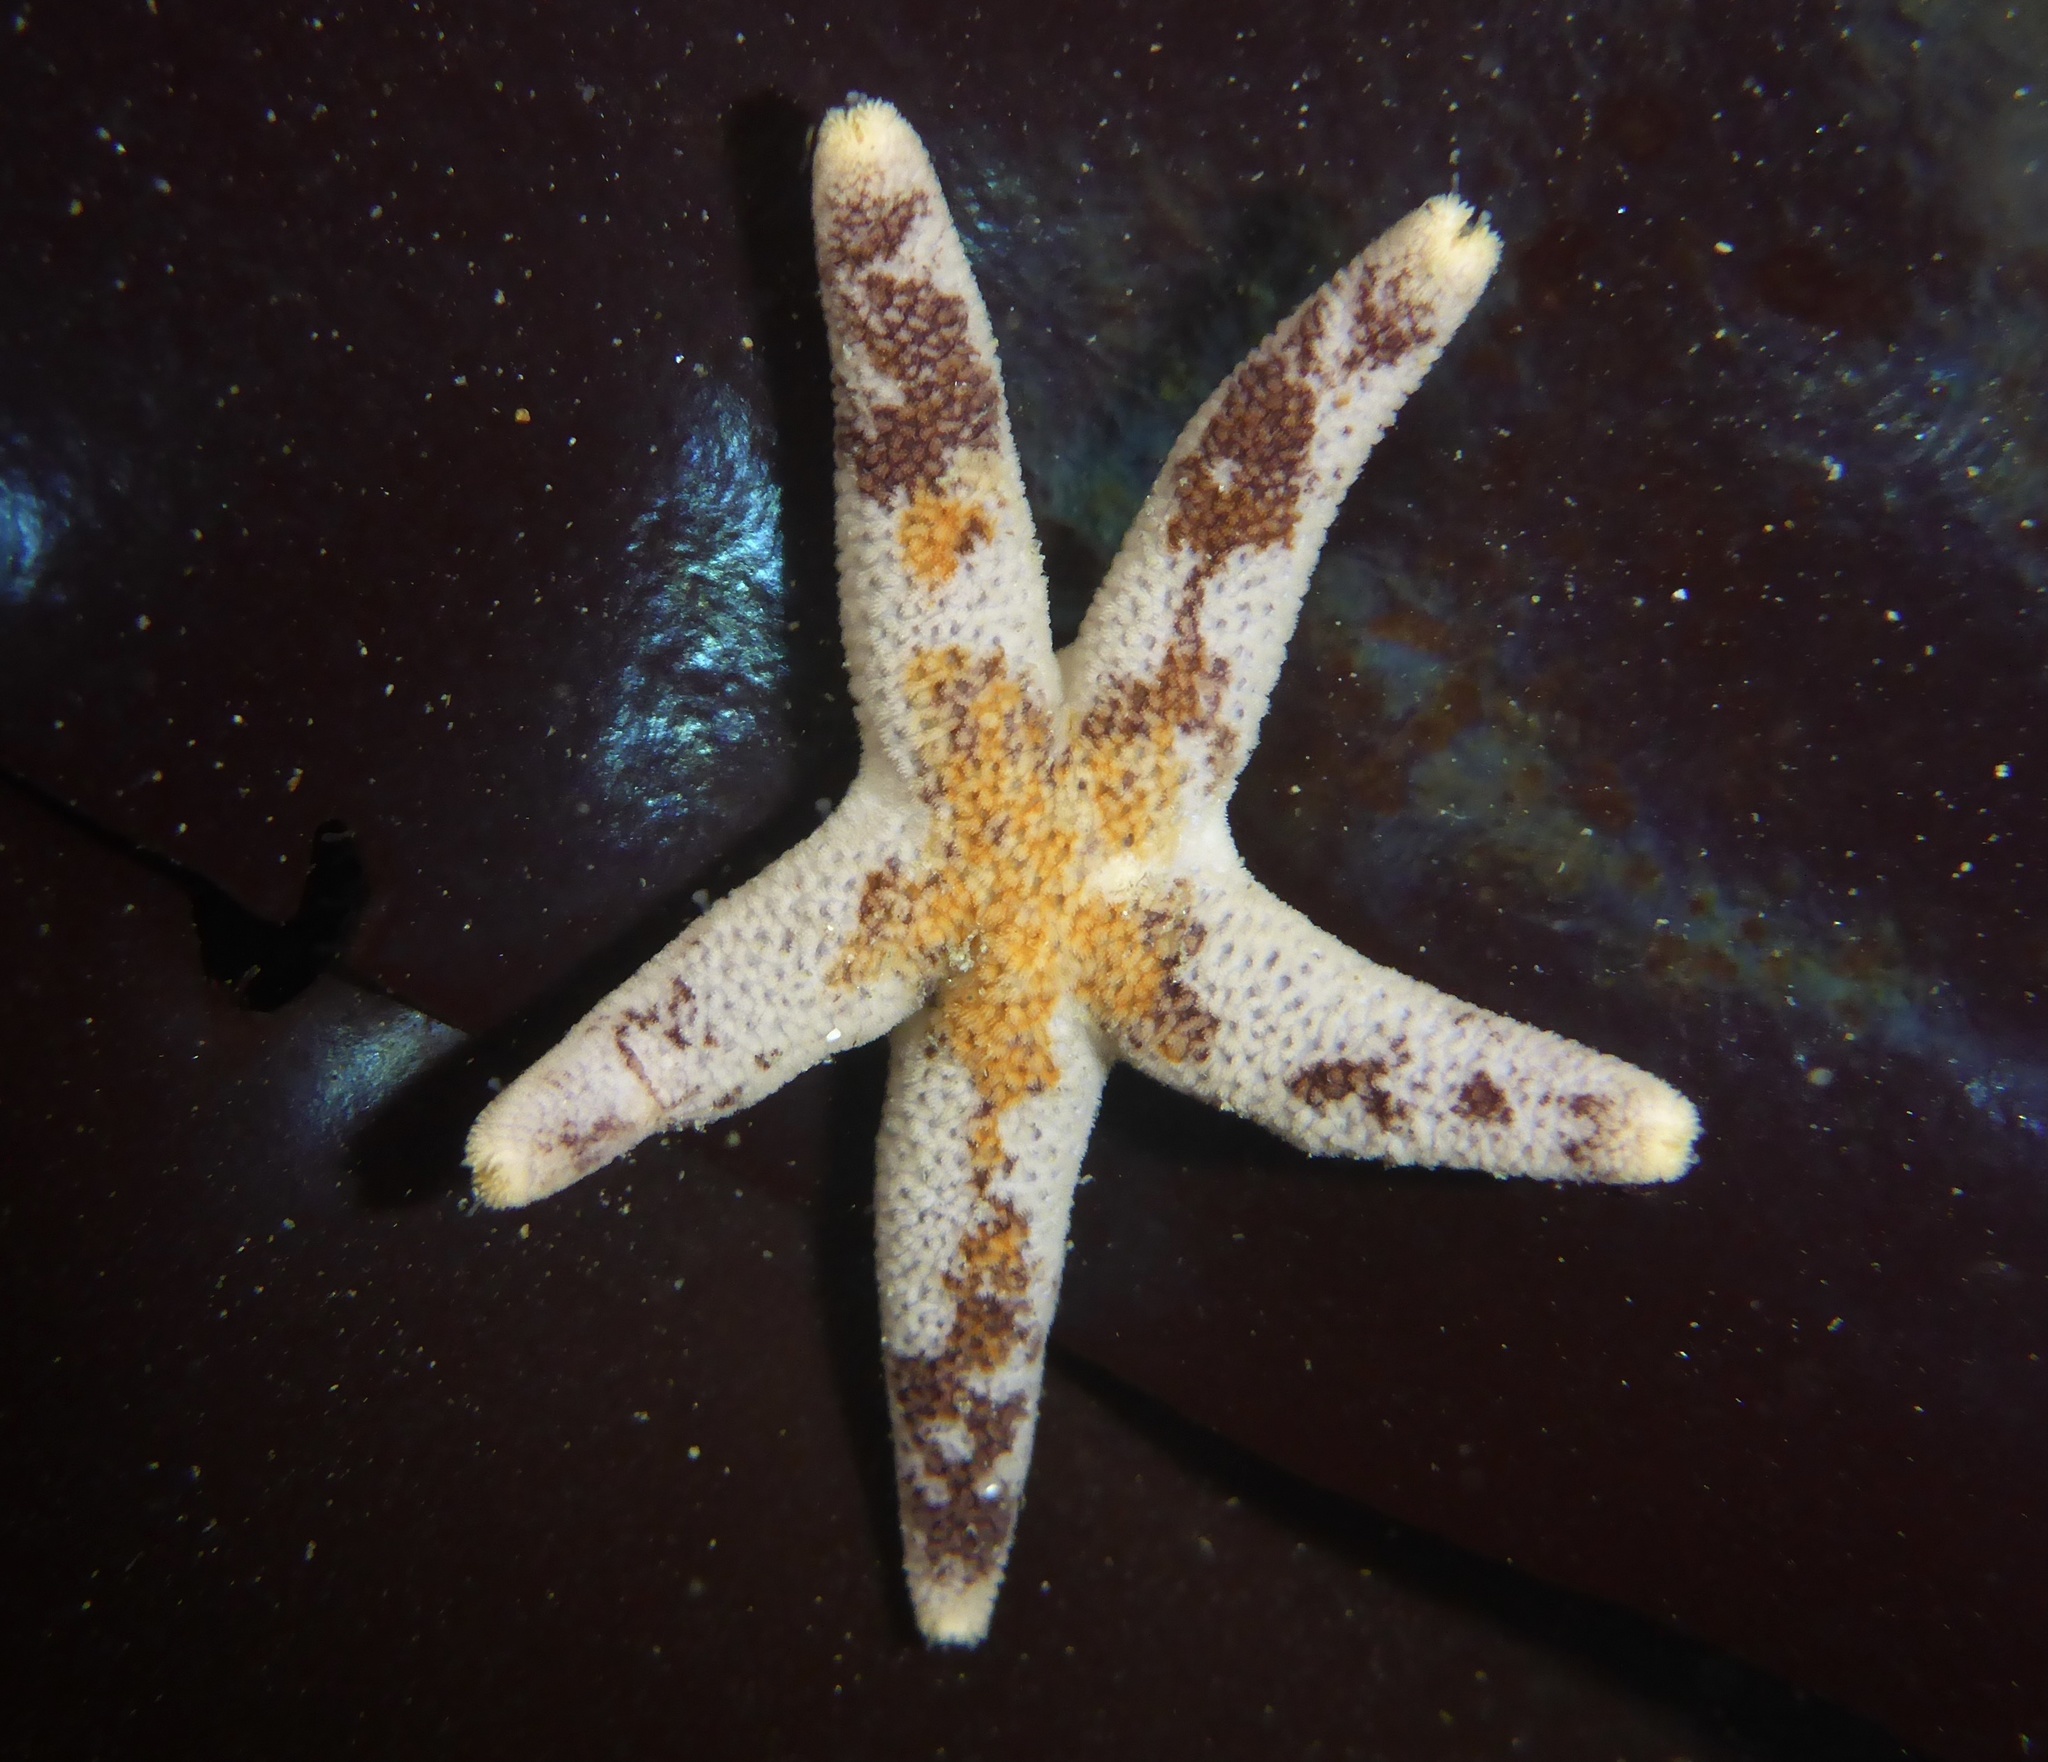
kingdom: Animalia
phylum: Echinodermata
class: Asteroidea
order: Spinulosida
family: Echinasteridae
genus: Henricia
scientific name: Henricia pumila
